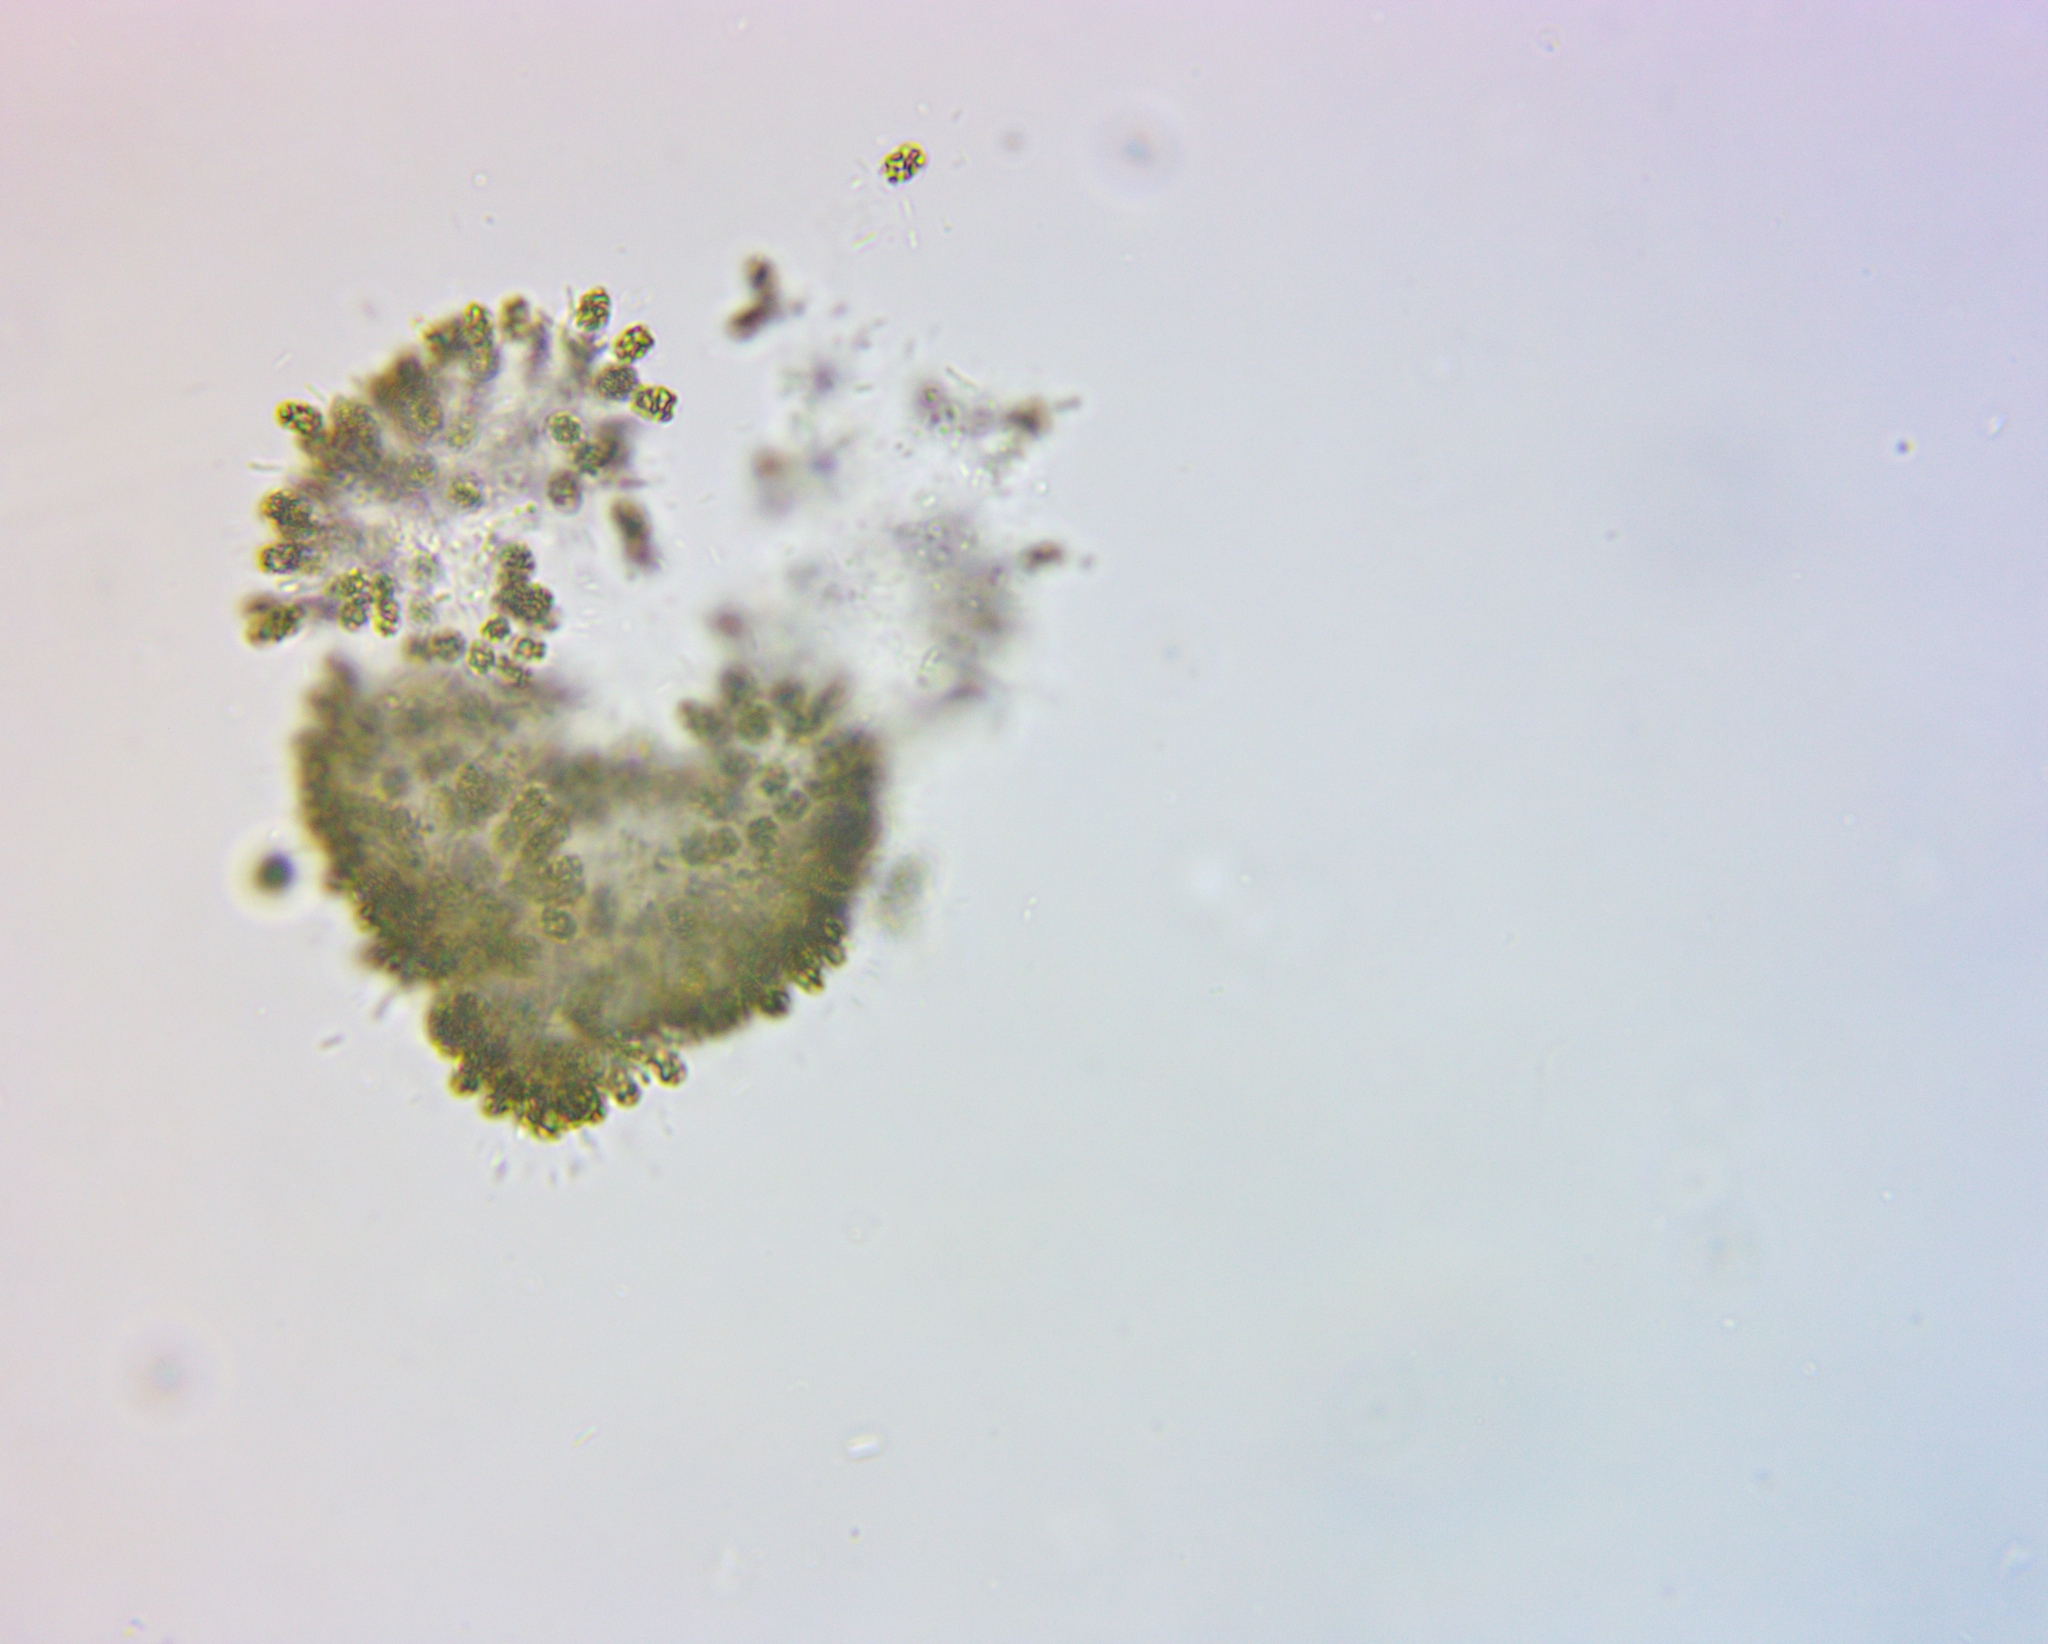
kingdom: Bacteria
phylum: Cyanobacteria
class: Cyanobacteriia
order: Synechococcales
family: Coelosphaeriaceae
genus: Woronichinia
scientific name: Woronichinia naegeliana
